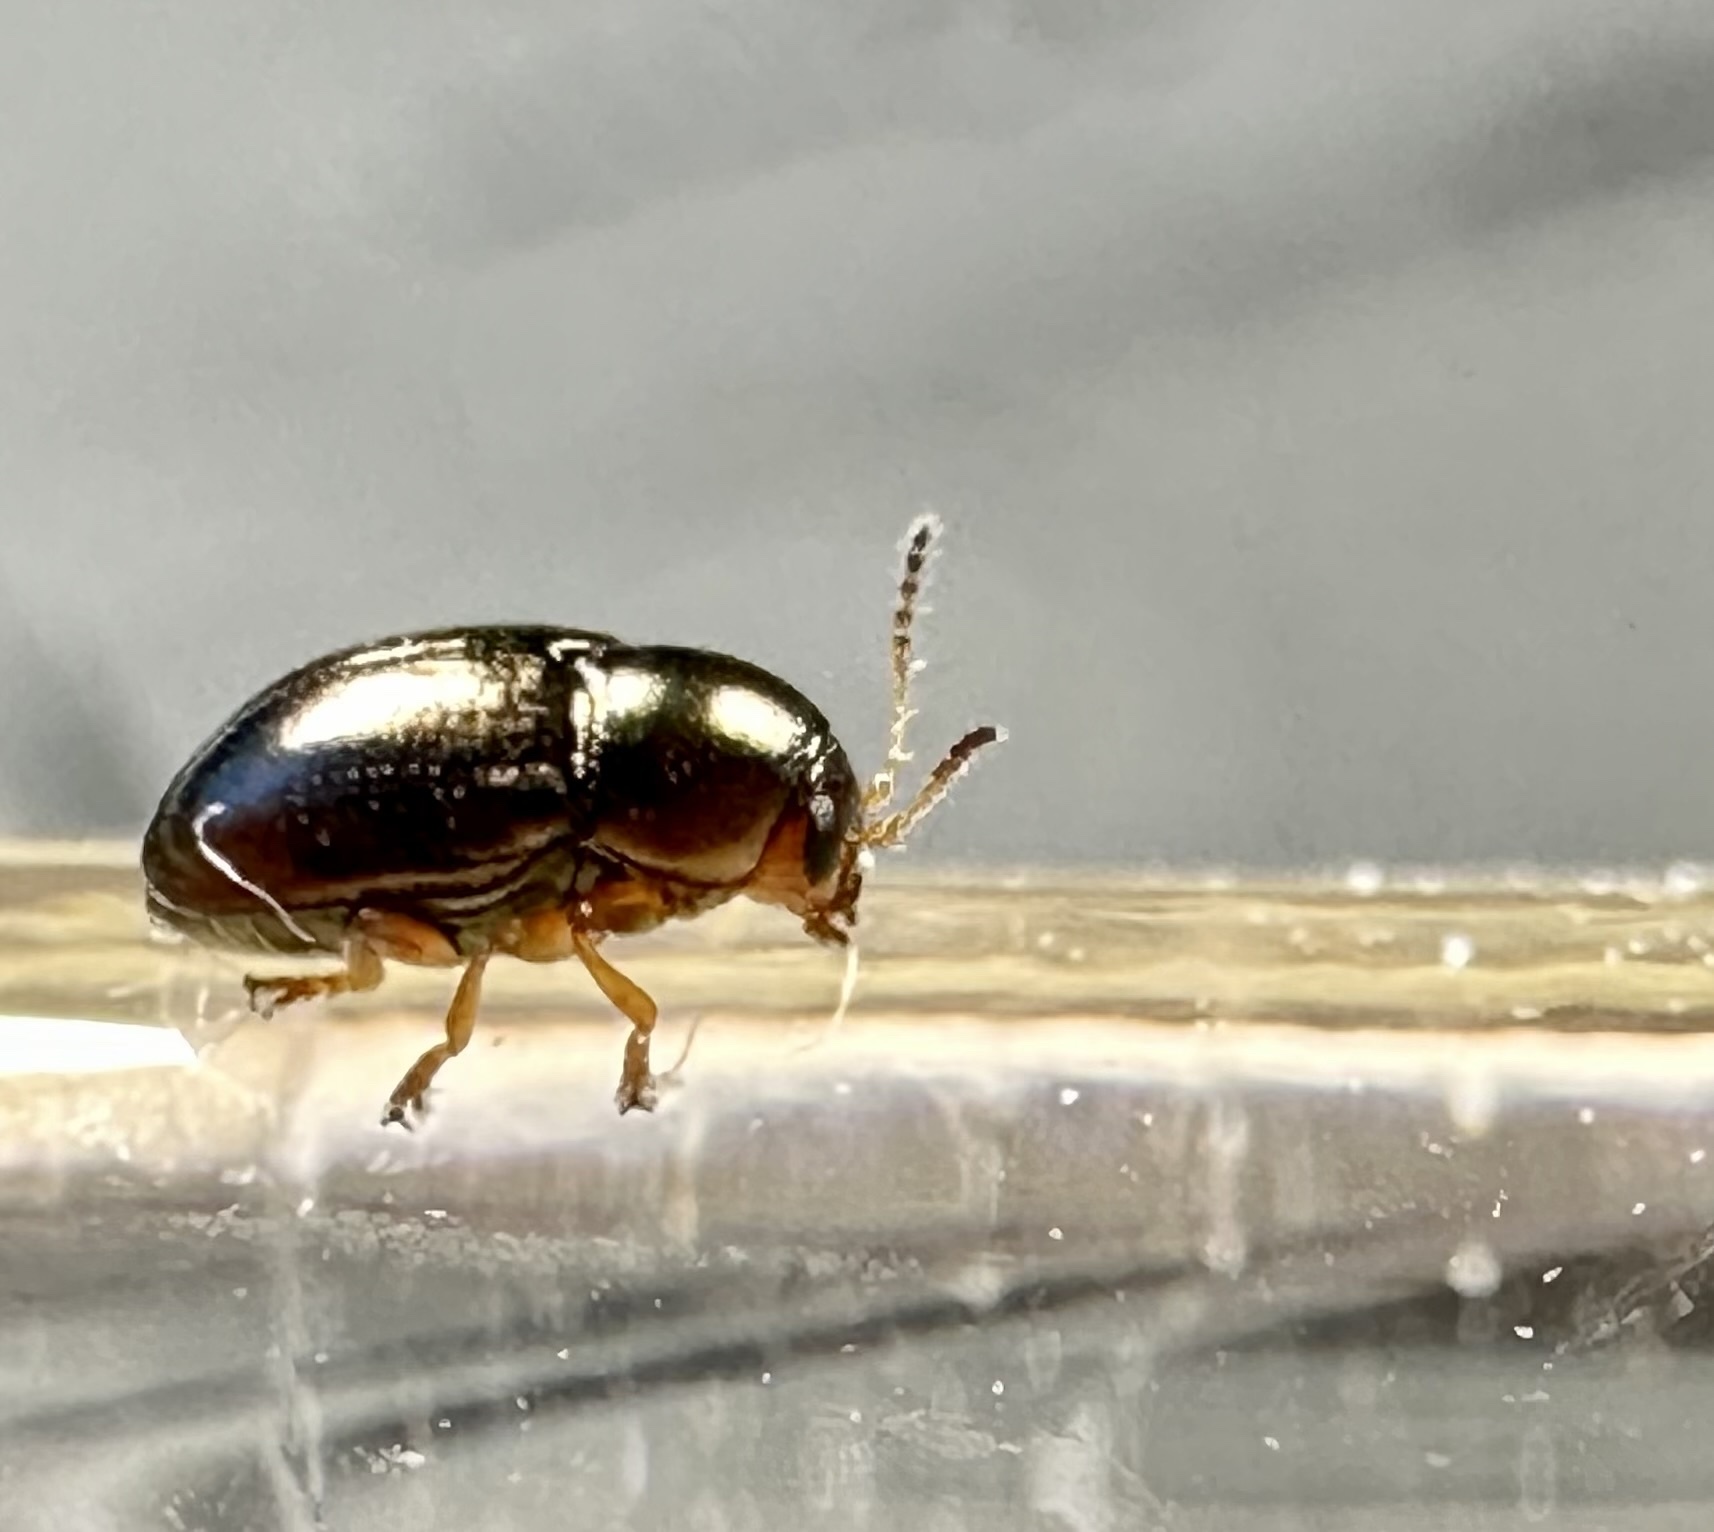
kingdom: Animalia
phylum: Arthropoda
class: Insecta
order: Coleoptera
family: Chrysomelidae
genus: Diachus
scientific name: Diachus auratus
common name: Bronze leaf beetle
